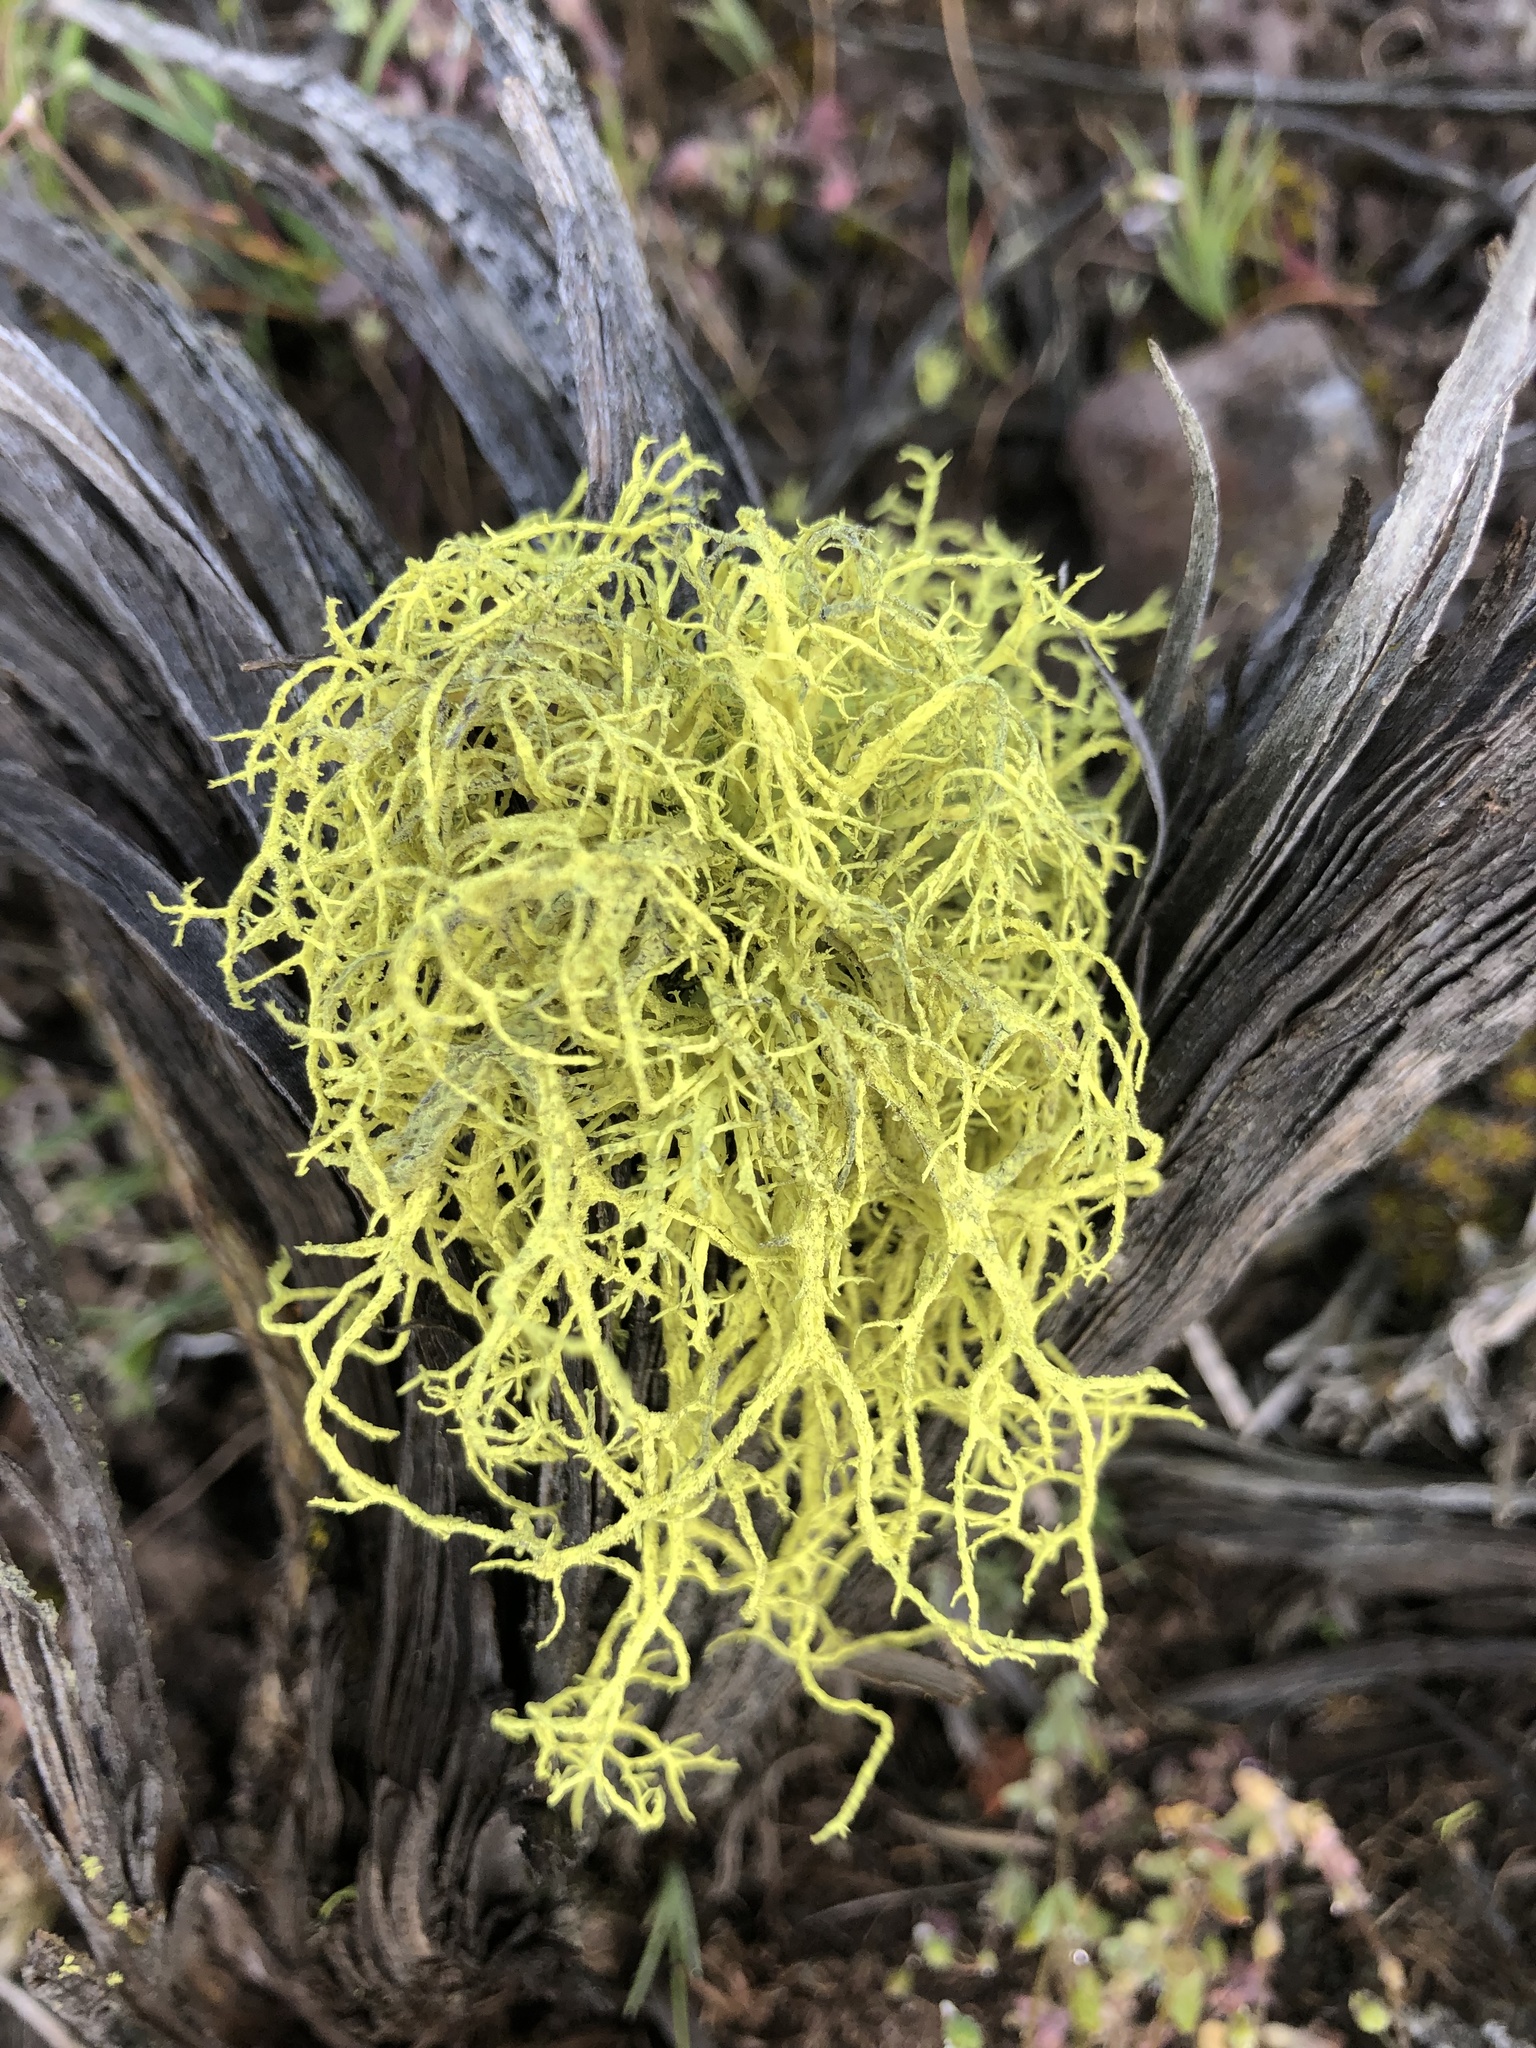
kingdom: Fungi
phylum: Ascomycota
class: Lecanoromycetes
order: Lecanorales
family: Parmeliaceae
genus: Letharia
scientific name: Letharia vulpina
